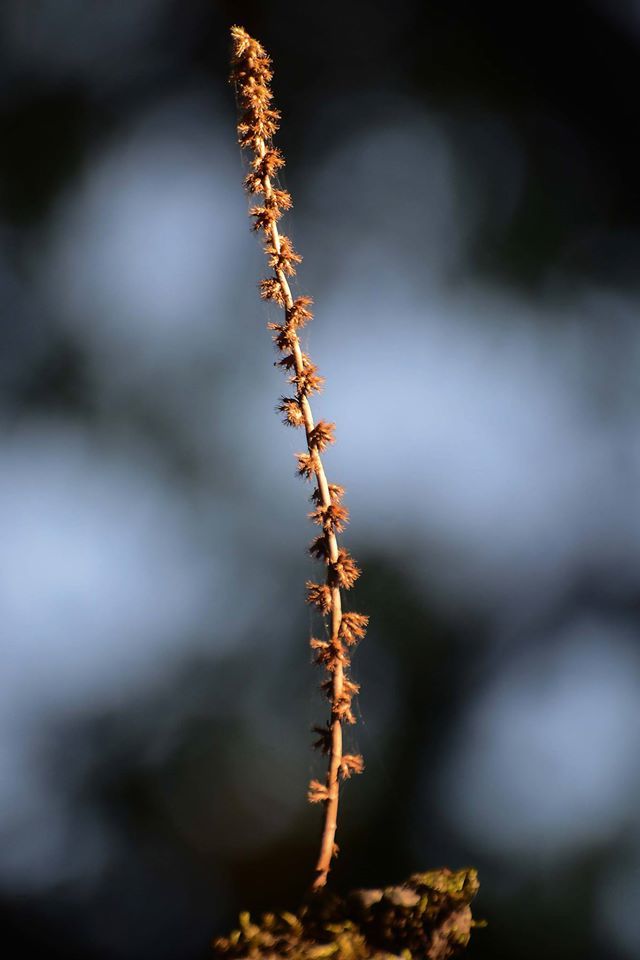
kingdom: Plantae
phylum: Tracheophyta
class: Liliopsida
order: Alismatales
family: Araceae
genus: Remusatia
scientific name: Remusatia vivipara
